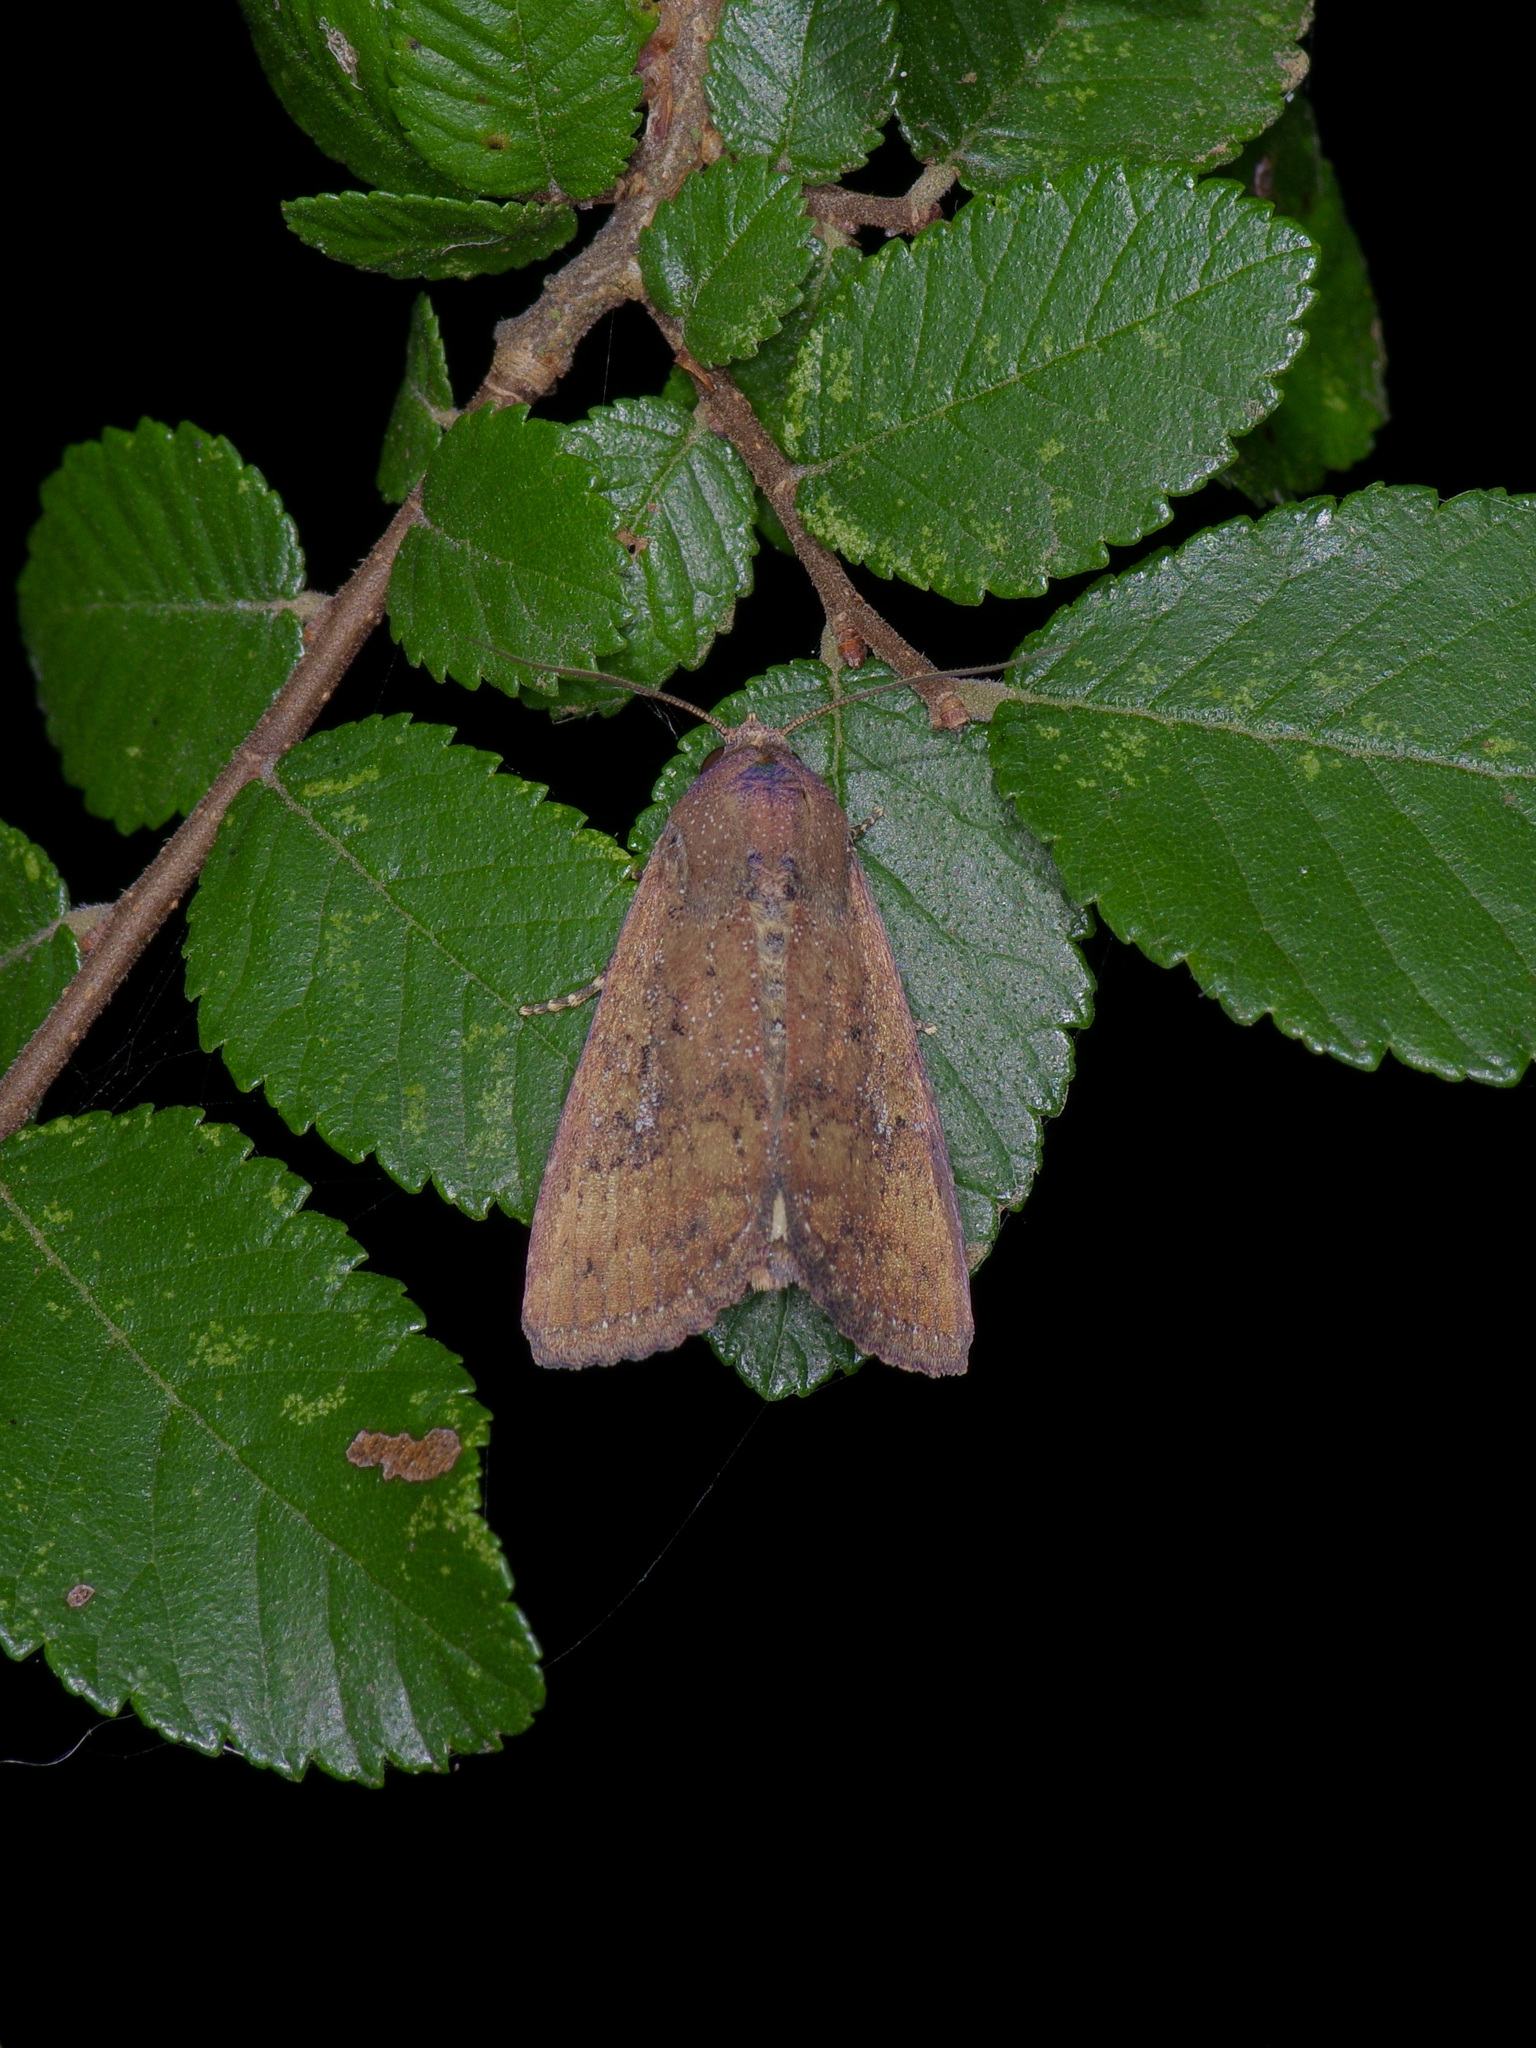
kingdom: Animalia
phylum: Arthropoda
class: Insecta
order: Lepidoptera
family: Noctuidae
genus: Condica
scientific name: Condica sutor
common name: Cobbler moth
